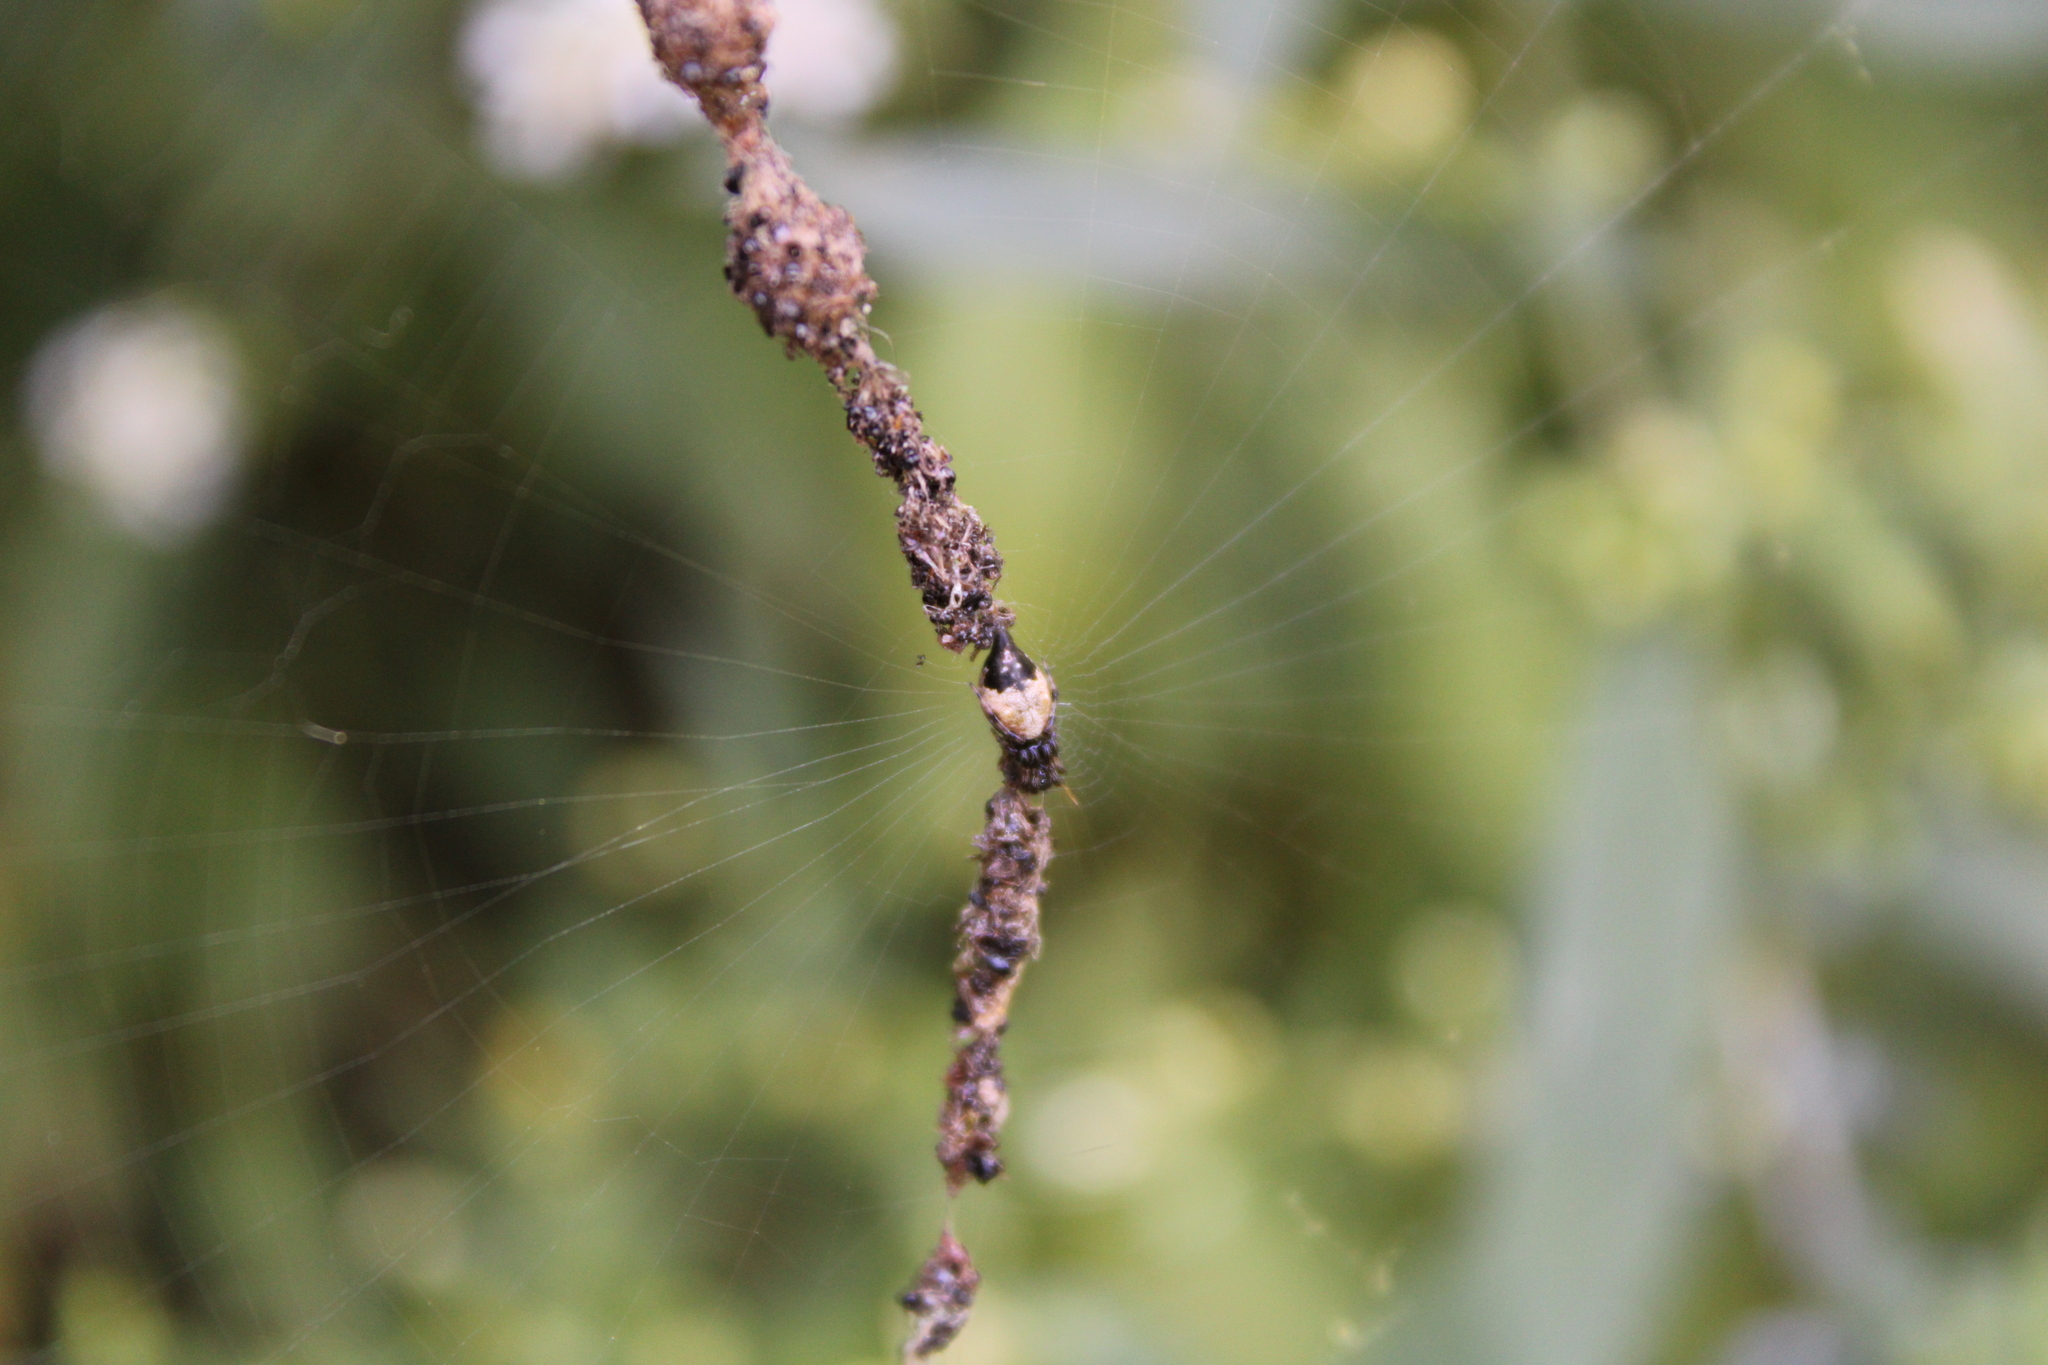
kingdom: Animalia
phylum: Arthropoda
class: Arachnida
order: Araneae
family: Araneidae
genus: Cyclosa
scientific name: Cyclosa turbinata
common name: Orb weavers
